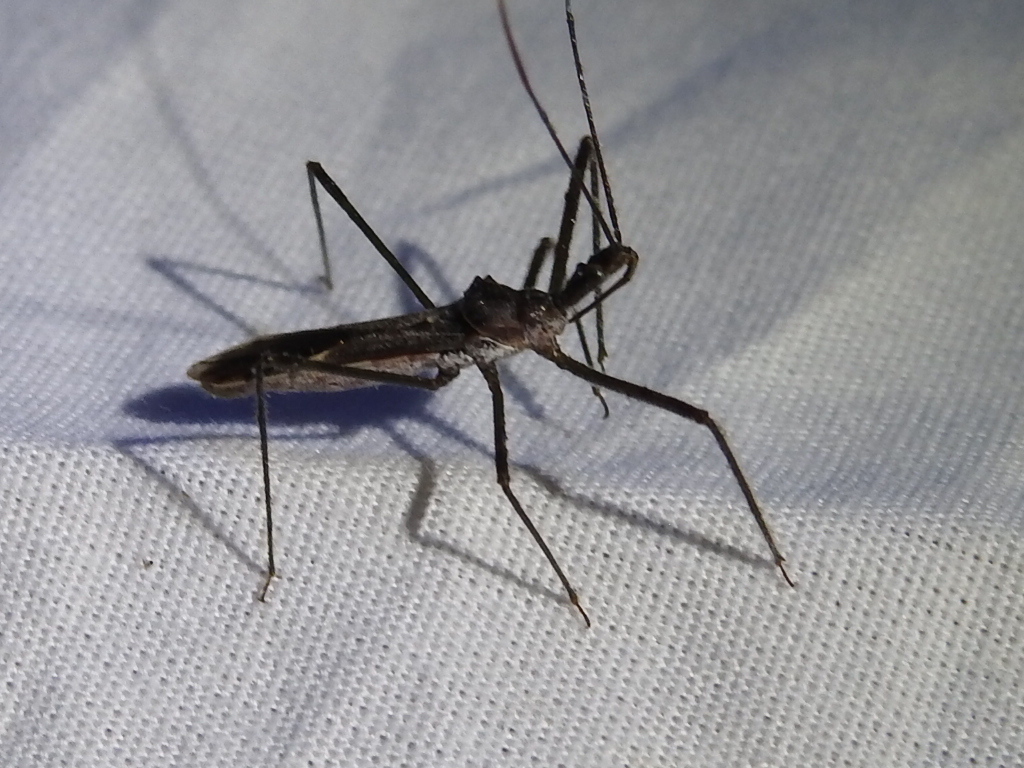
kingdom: Animalia
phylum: Arthropoda
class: Insecta
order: Hemiptera
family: Reduviidae
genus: Zelus
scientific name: Zelus tetracanthus
